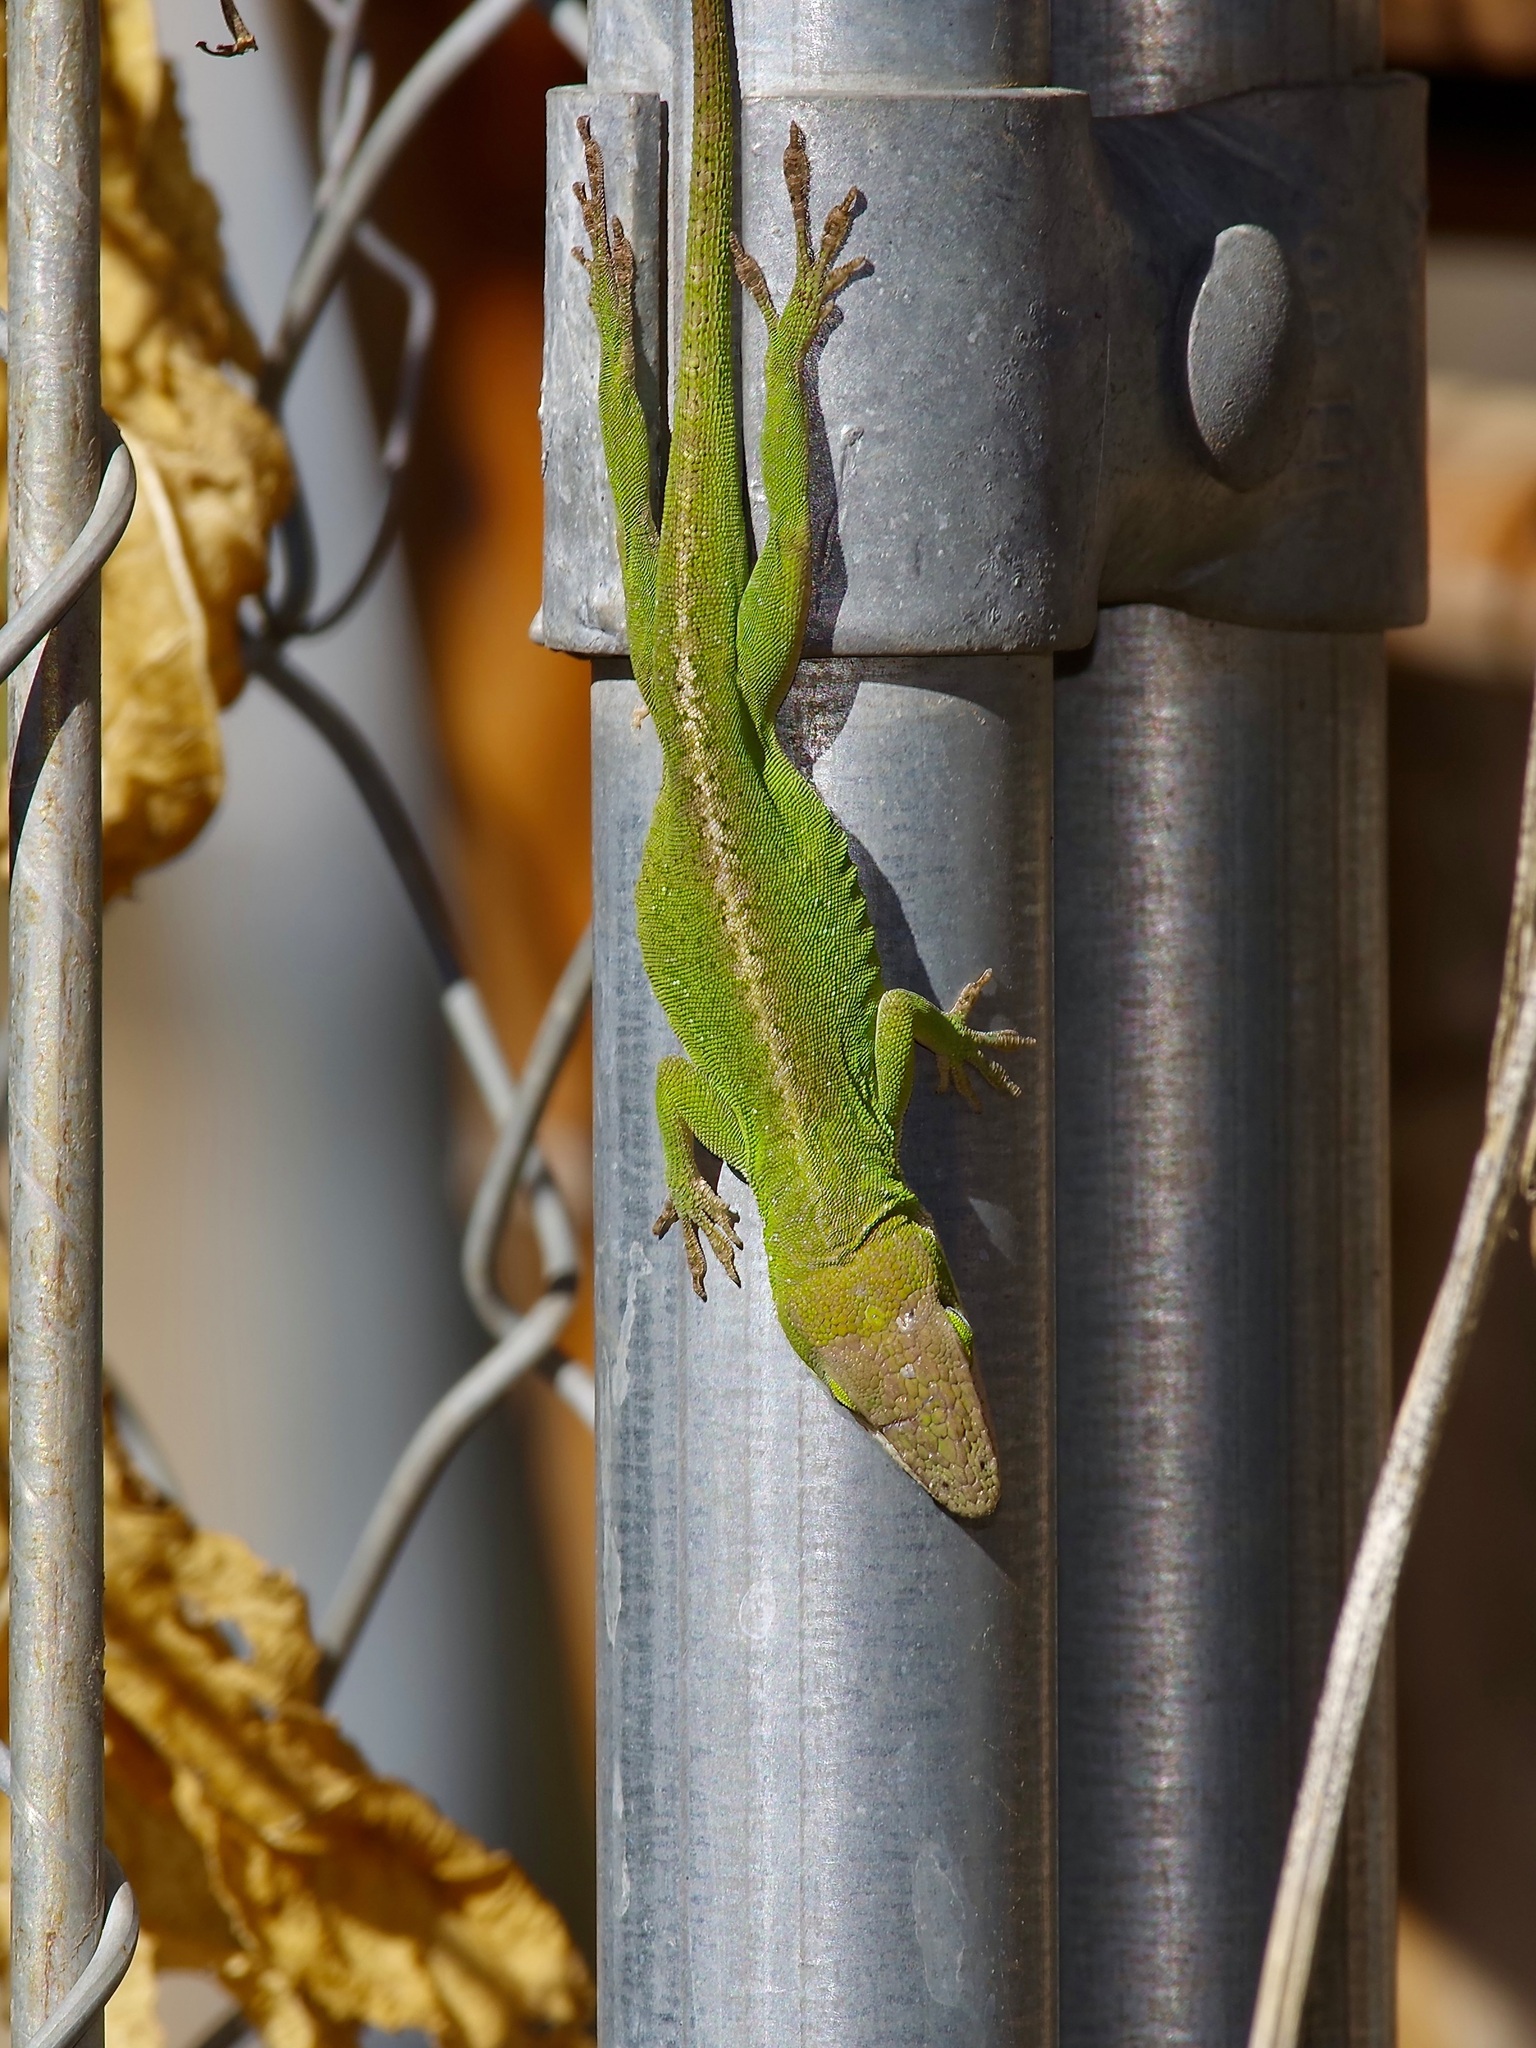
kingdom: Animalia
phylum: Chordata
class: Squamata
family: Dactyloidae
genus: Anolis
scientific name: Anolis carolinensis
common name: Green anole
